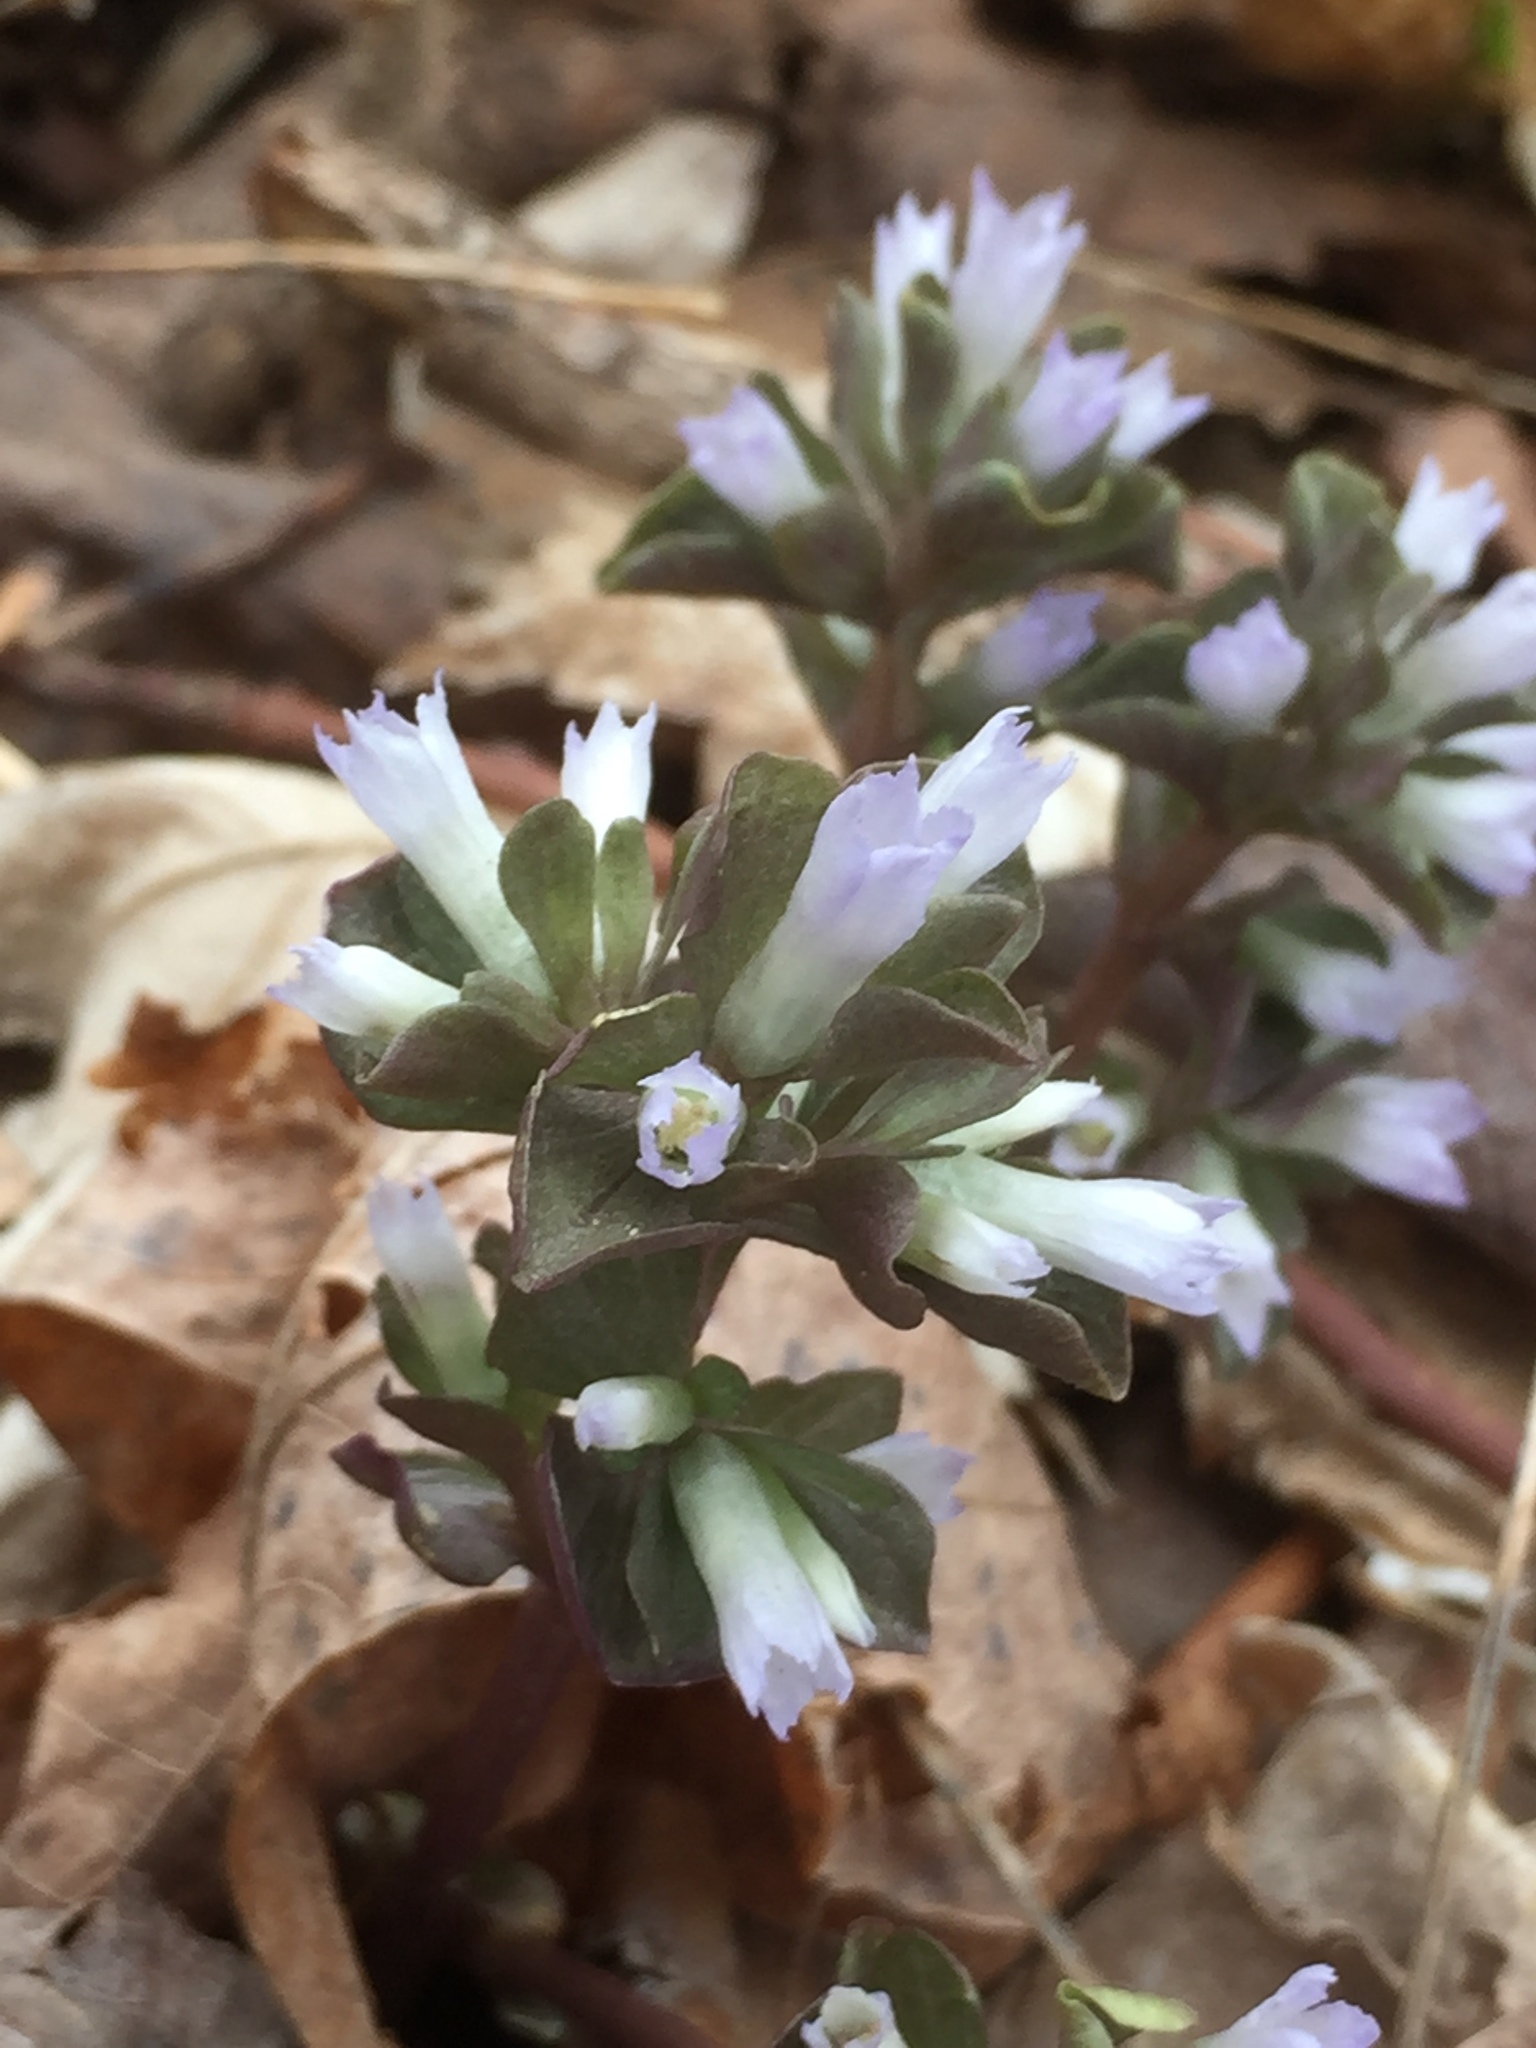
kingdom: Plantae
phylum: Tracheophyta
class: Magnoliopsida
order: Gentianales
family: Gentianaceae
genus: Obolaria
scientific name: Obolaria virginica
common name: Pennywort
